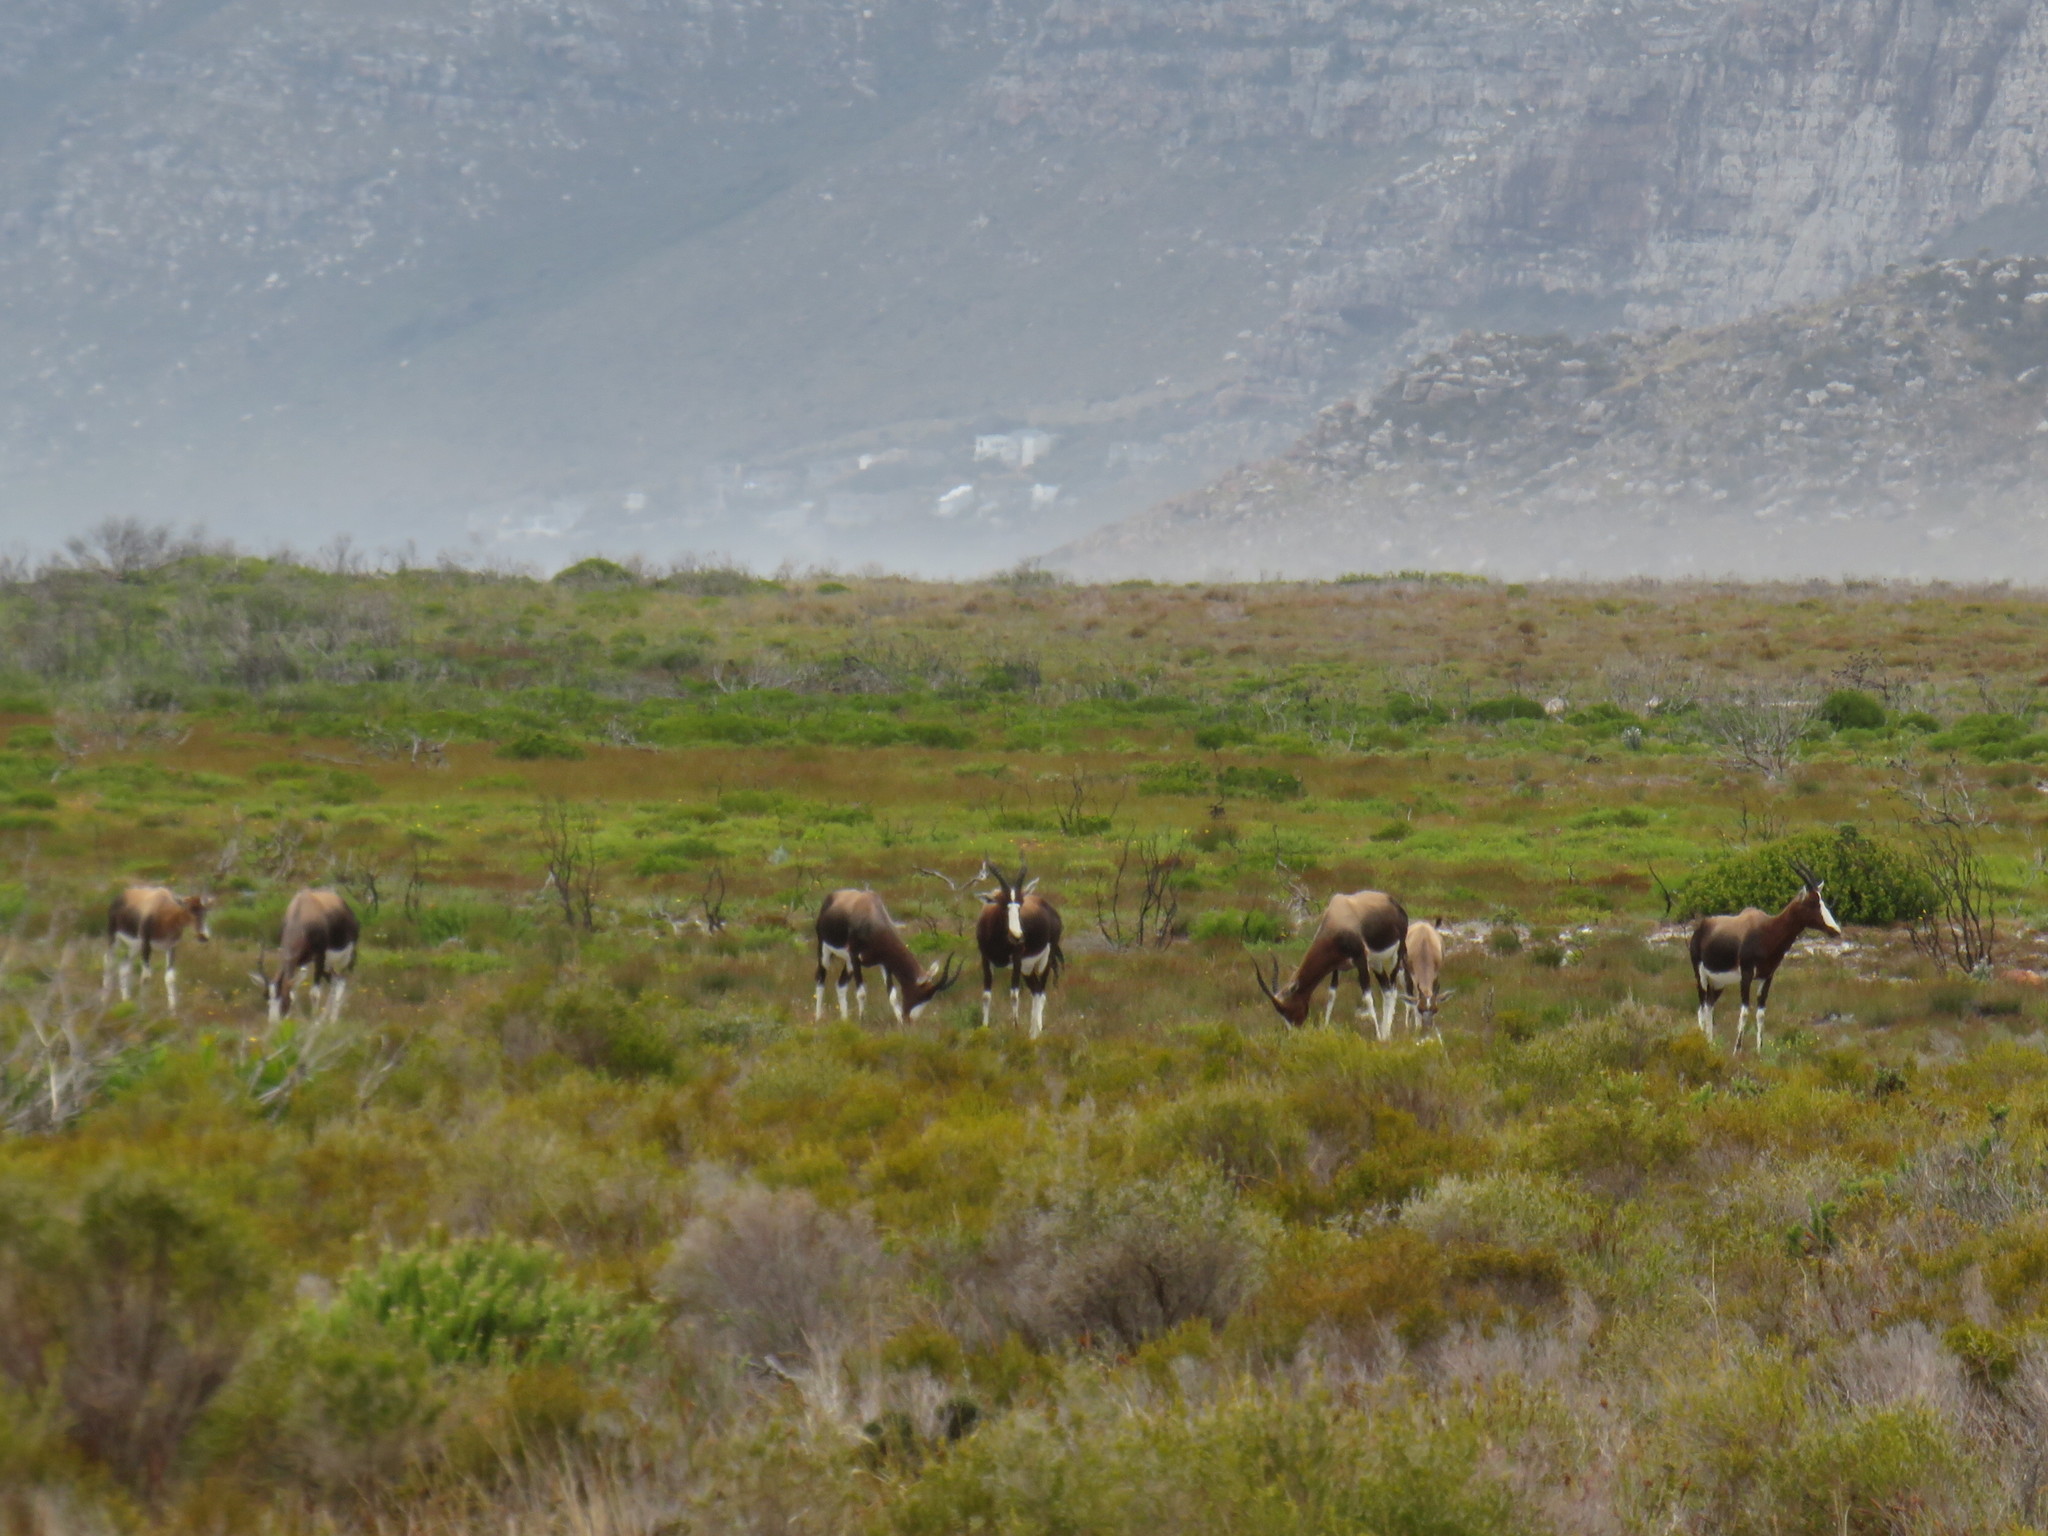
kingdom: Animalia
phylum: Chordata
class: Mammalia
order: Artiodactyla
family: Bovidae
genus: Damaliscus
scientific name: Damaliscus pygargus
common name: Bontebok
